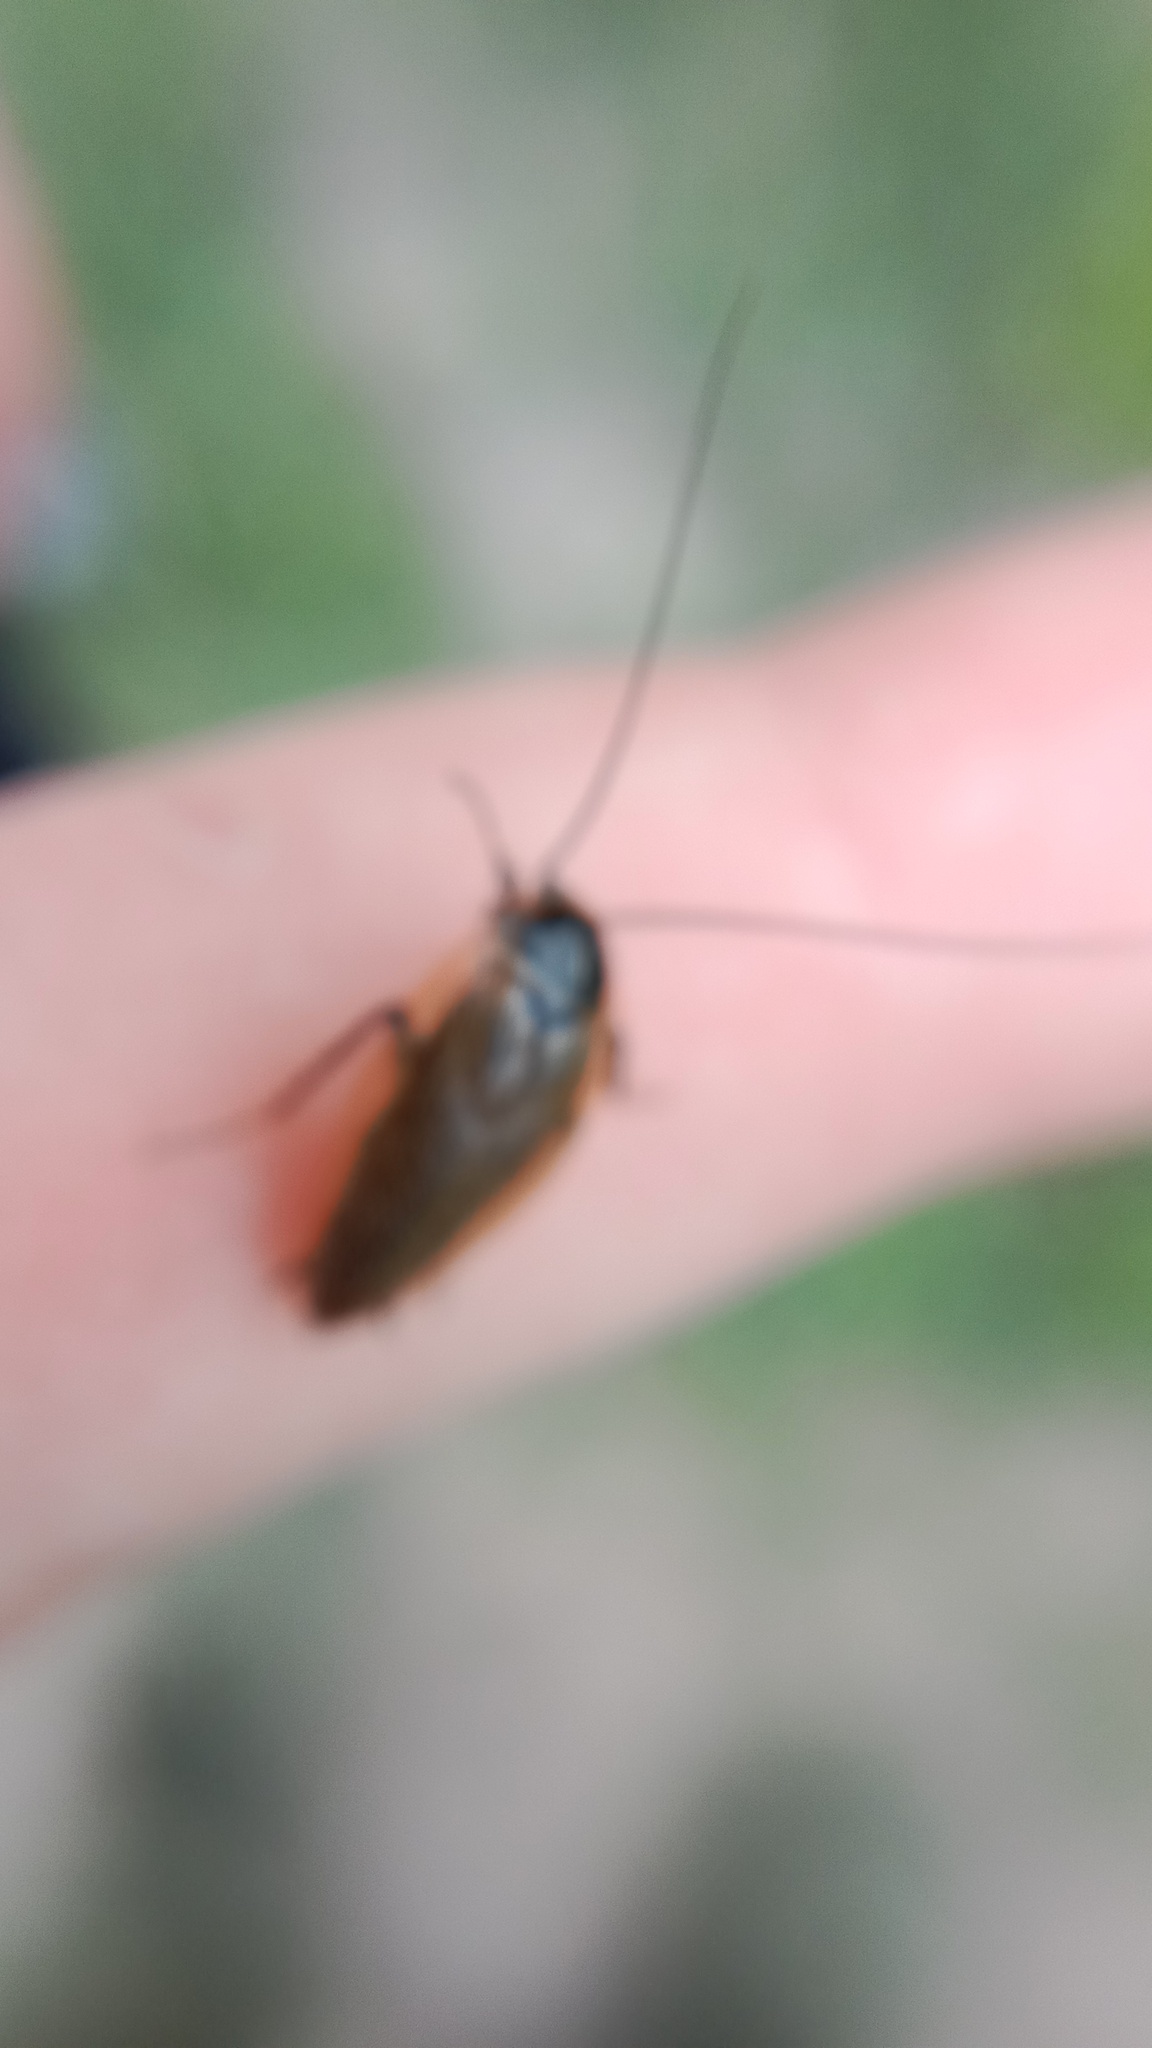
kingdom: Animalia
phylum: Arthropoda
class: Insecta
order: Blattodea
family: Ectobiidae
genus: Ectobius
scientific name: Ectobius lapponicus
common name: Dusky cockroach
